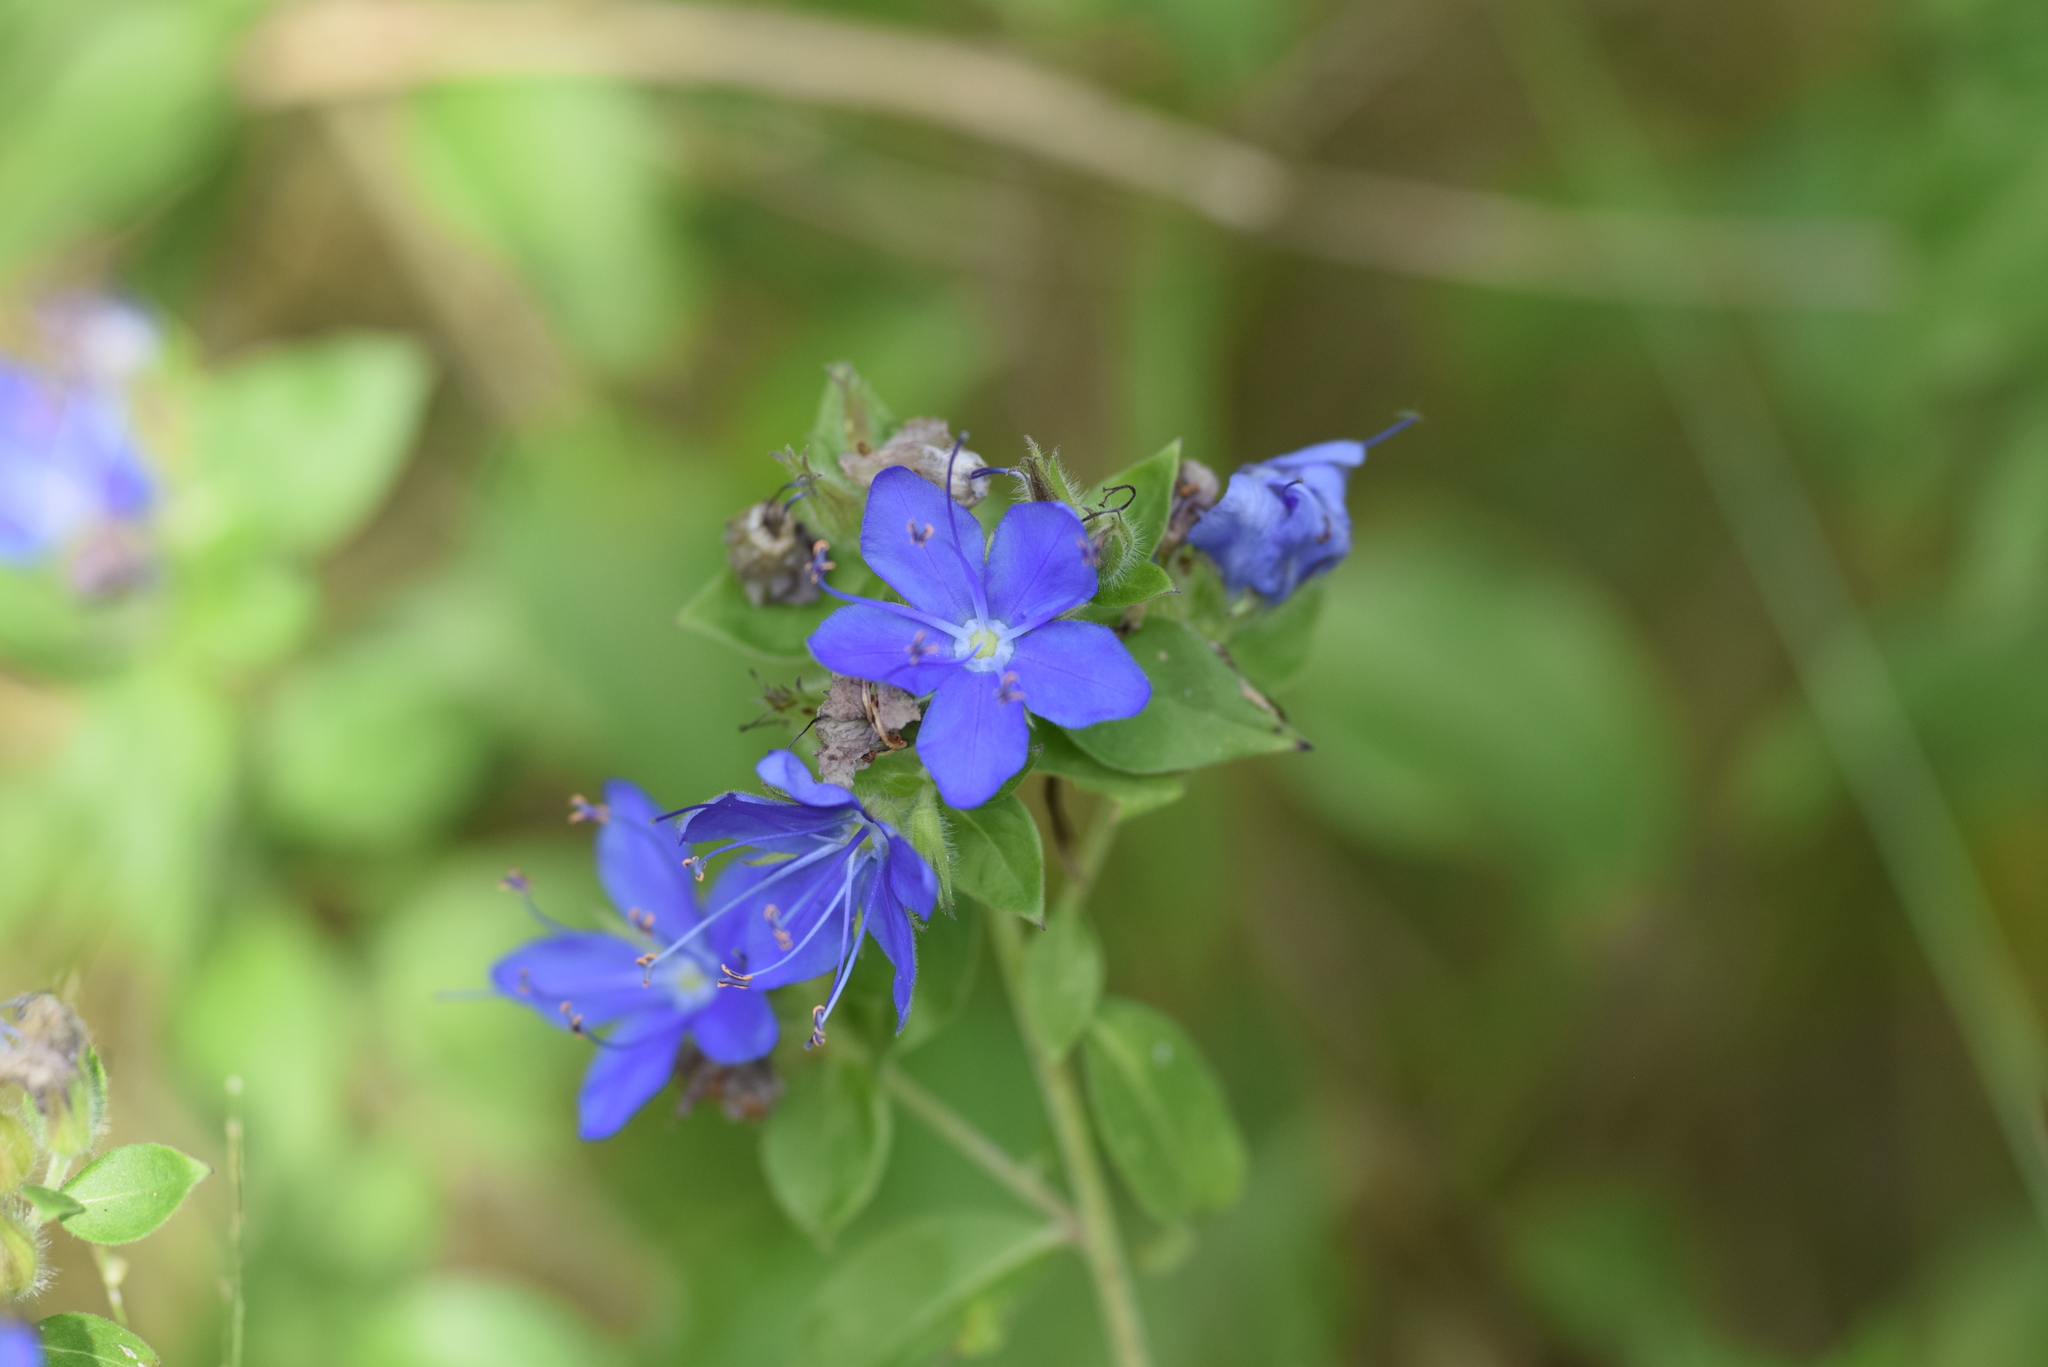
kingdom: Plantae
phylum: Tracheophyta
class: Magnoliopsida
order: Solanales
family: Hydroleaceae
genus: Hydrolea
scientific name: Hydrolea ovata
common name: Ovate false fiddleleaf
